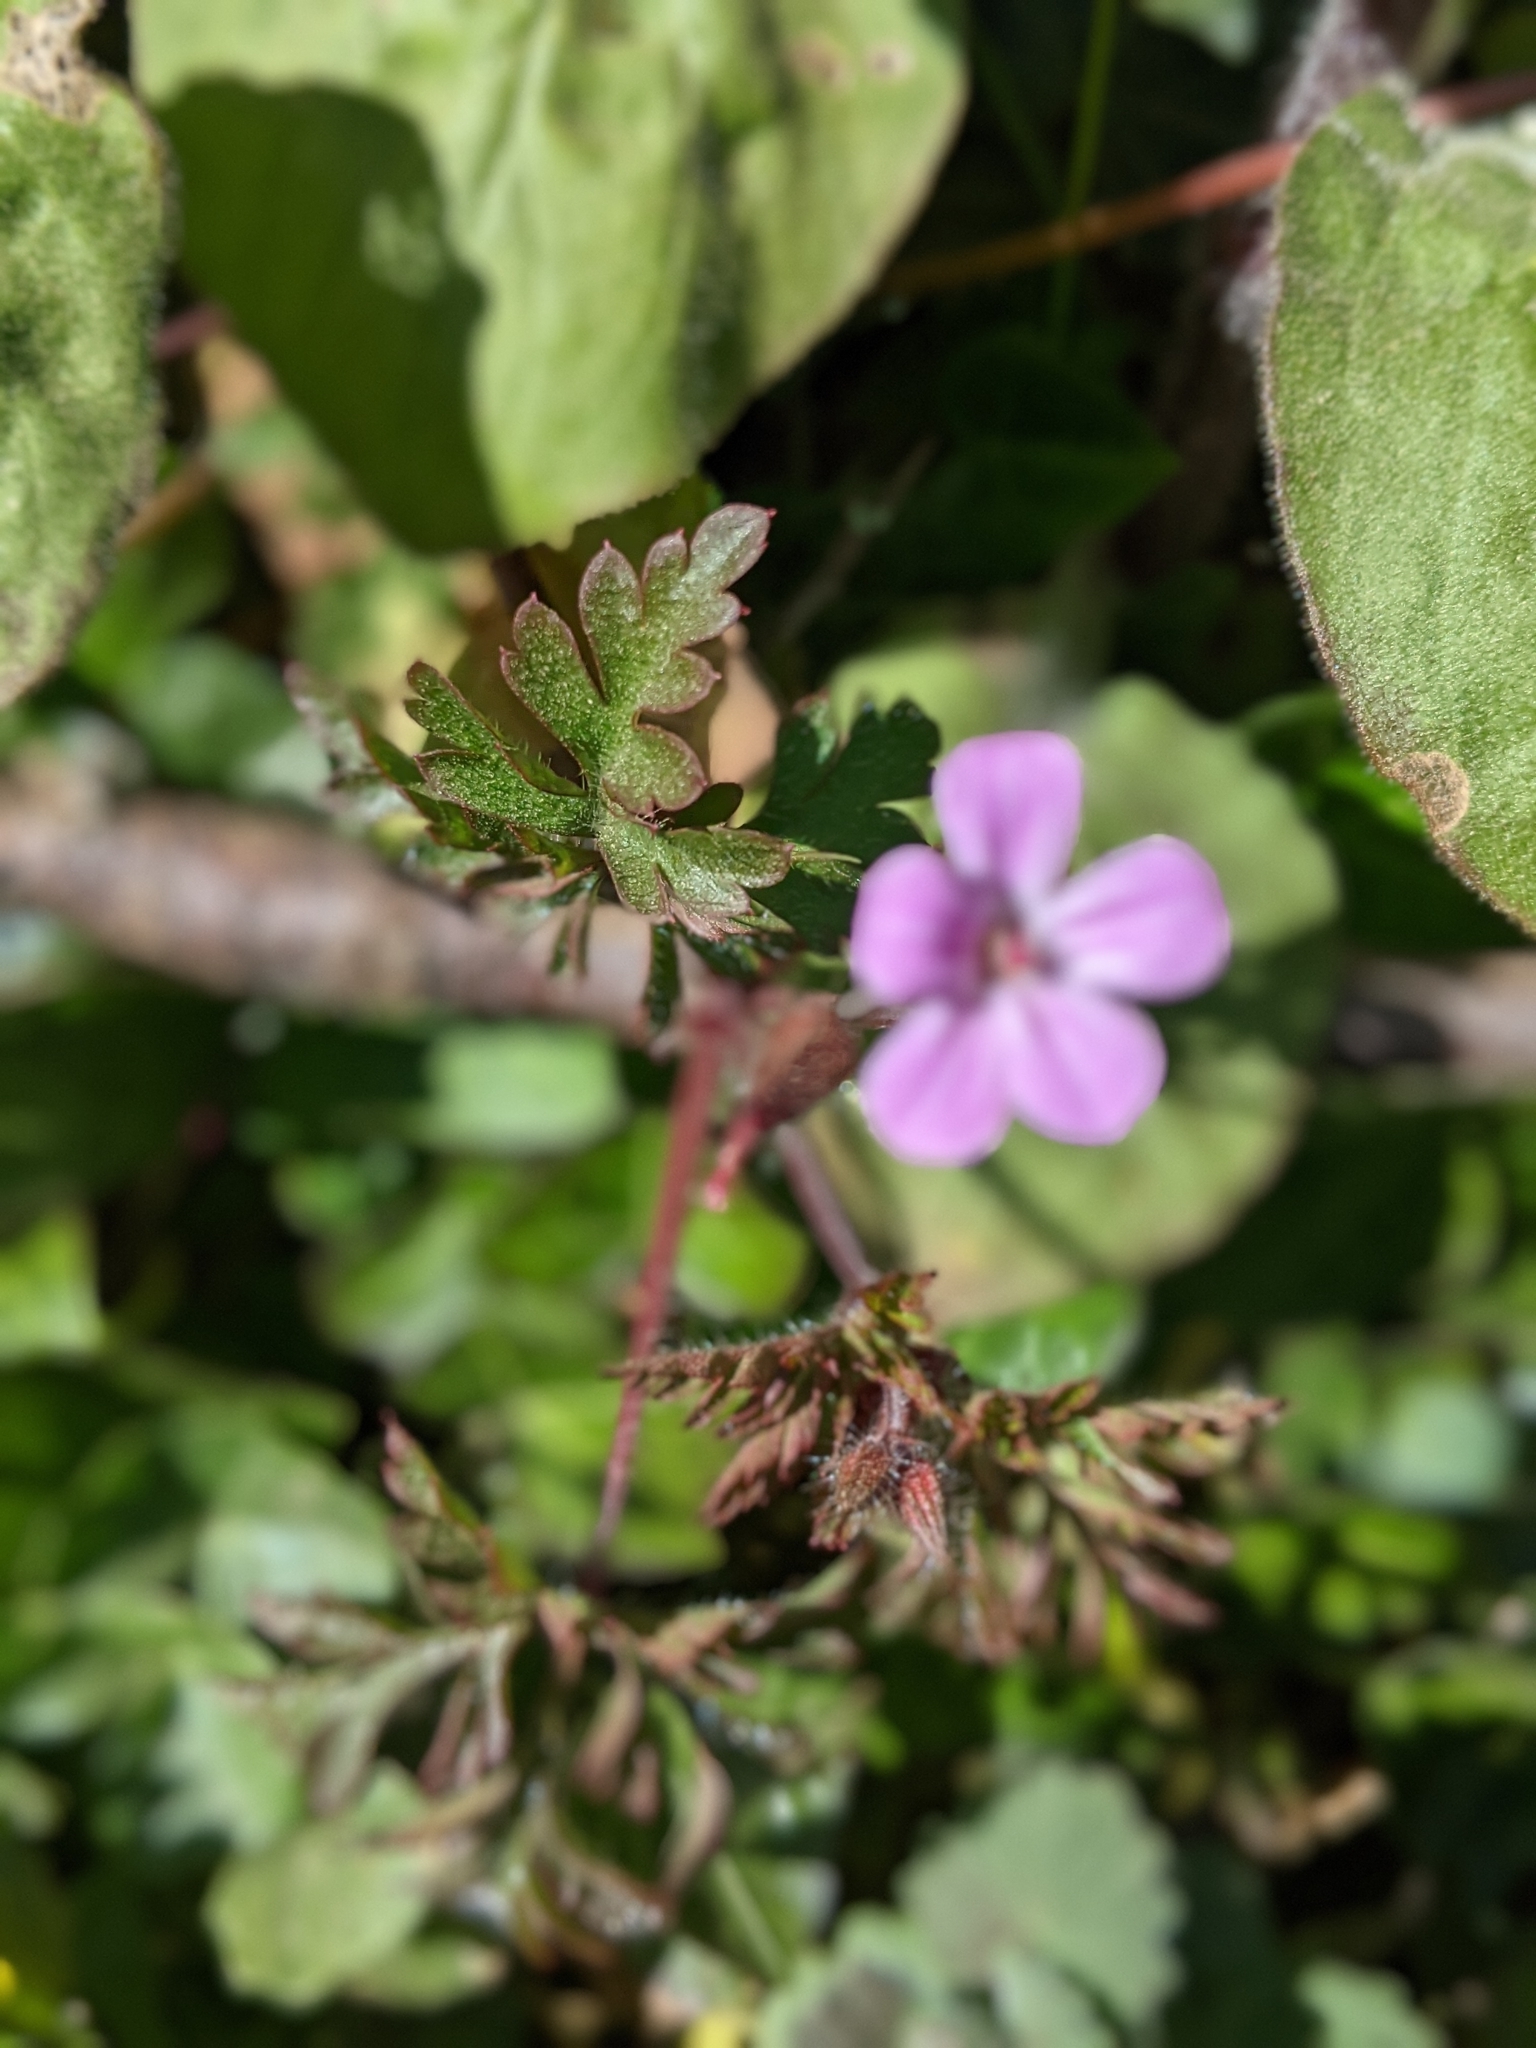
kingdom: Plantae
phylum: Tracheophyta
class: Magnoliopsida
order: Geraniales
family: Geraniaceae
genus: Geranium
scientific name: Geranium robertianum
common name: Herb-robert
